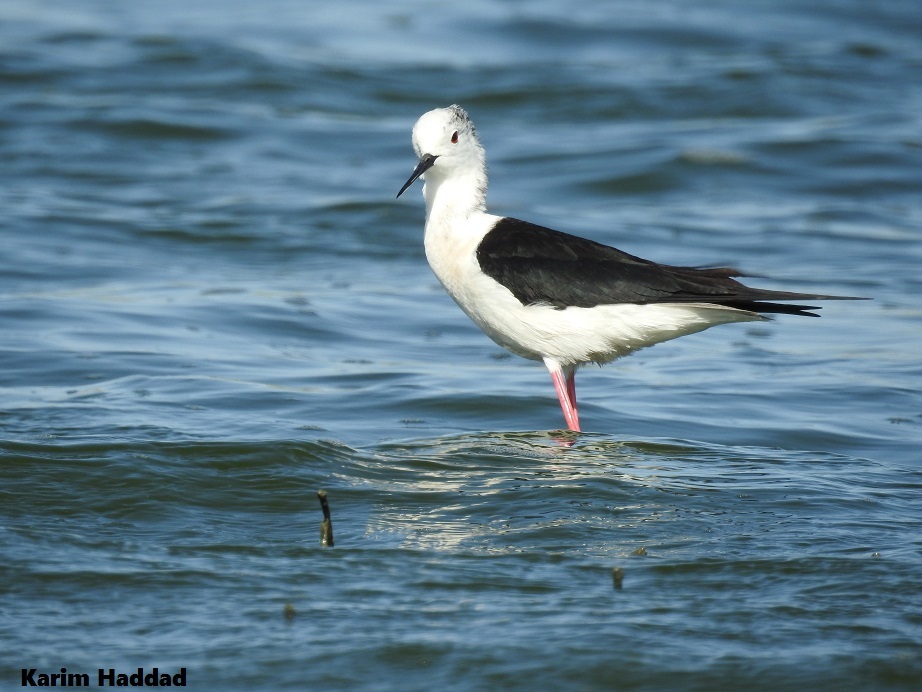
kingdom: Animalia
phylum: Chordata
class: Aves
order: Charadriiformes
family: Recurvirostridae
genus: Himantopus
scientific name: Himantopus himantopus
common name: Black-winged stilt
